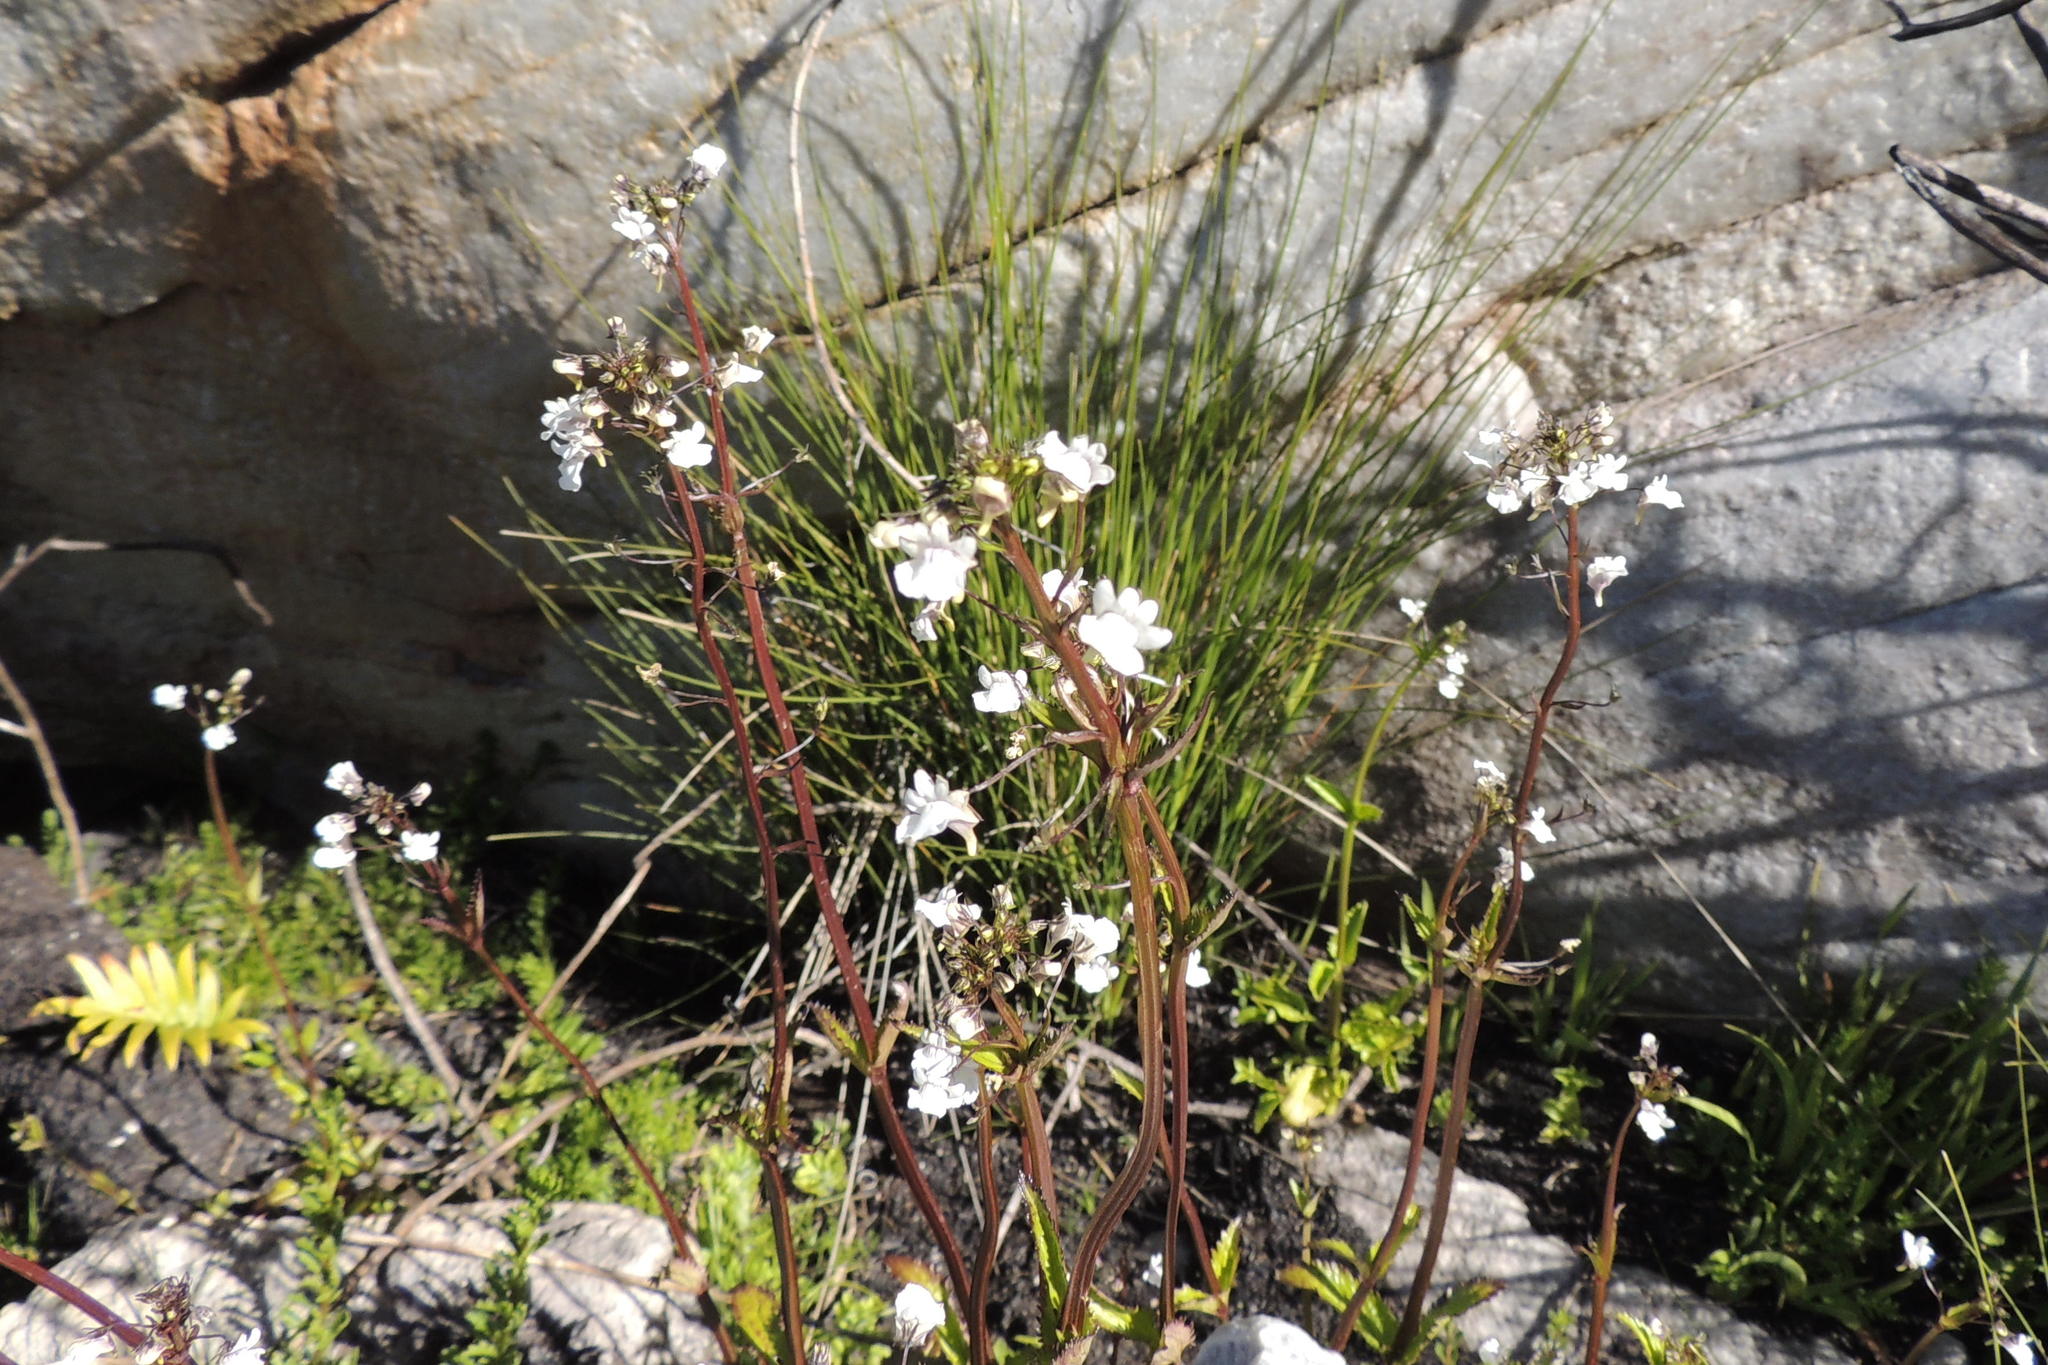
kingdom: Plantae
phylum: Tracheophyta
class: Magnoliopsida
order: Lamiales
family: Scrophulariaceae
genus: Nemesia
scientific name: Nemesia elata
